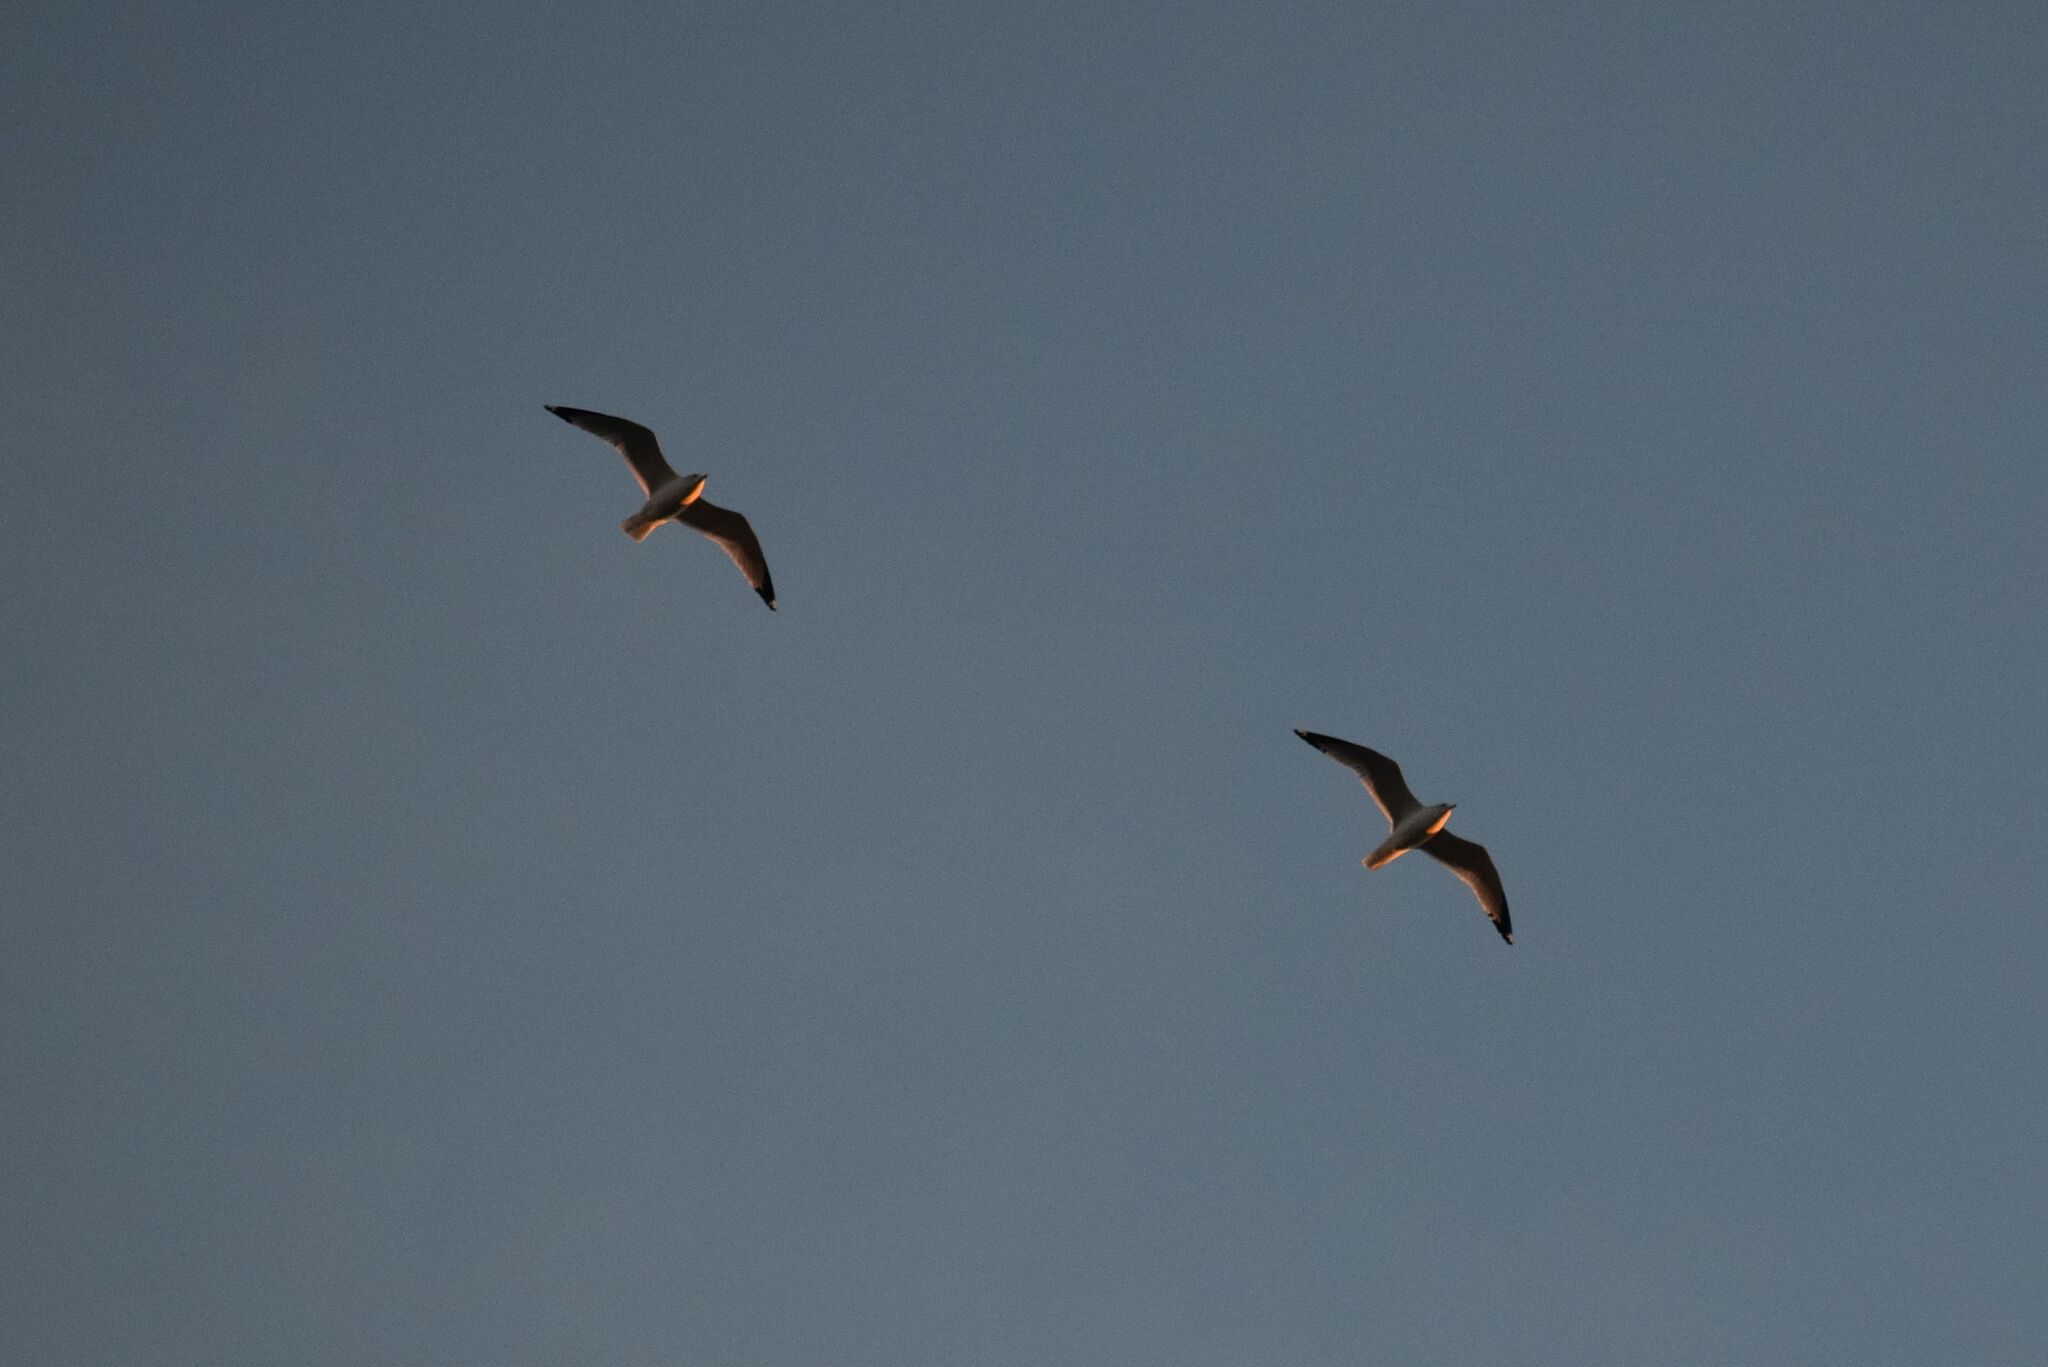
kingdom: Animalia
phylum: Chordata
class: Aves
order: Charadriiformes
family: Laridae
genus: Larus
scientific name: Larus delawarensis
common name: Ring-billed gull
